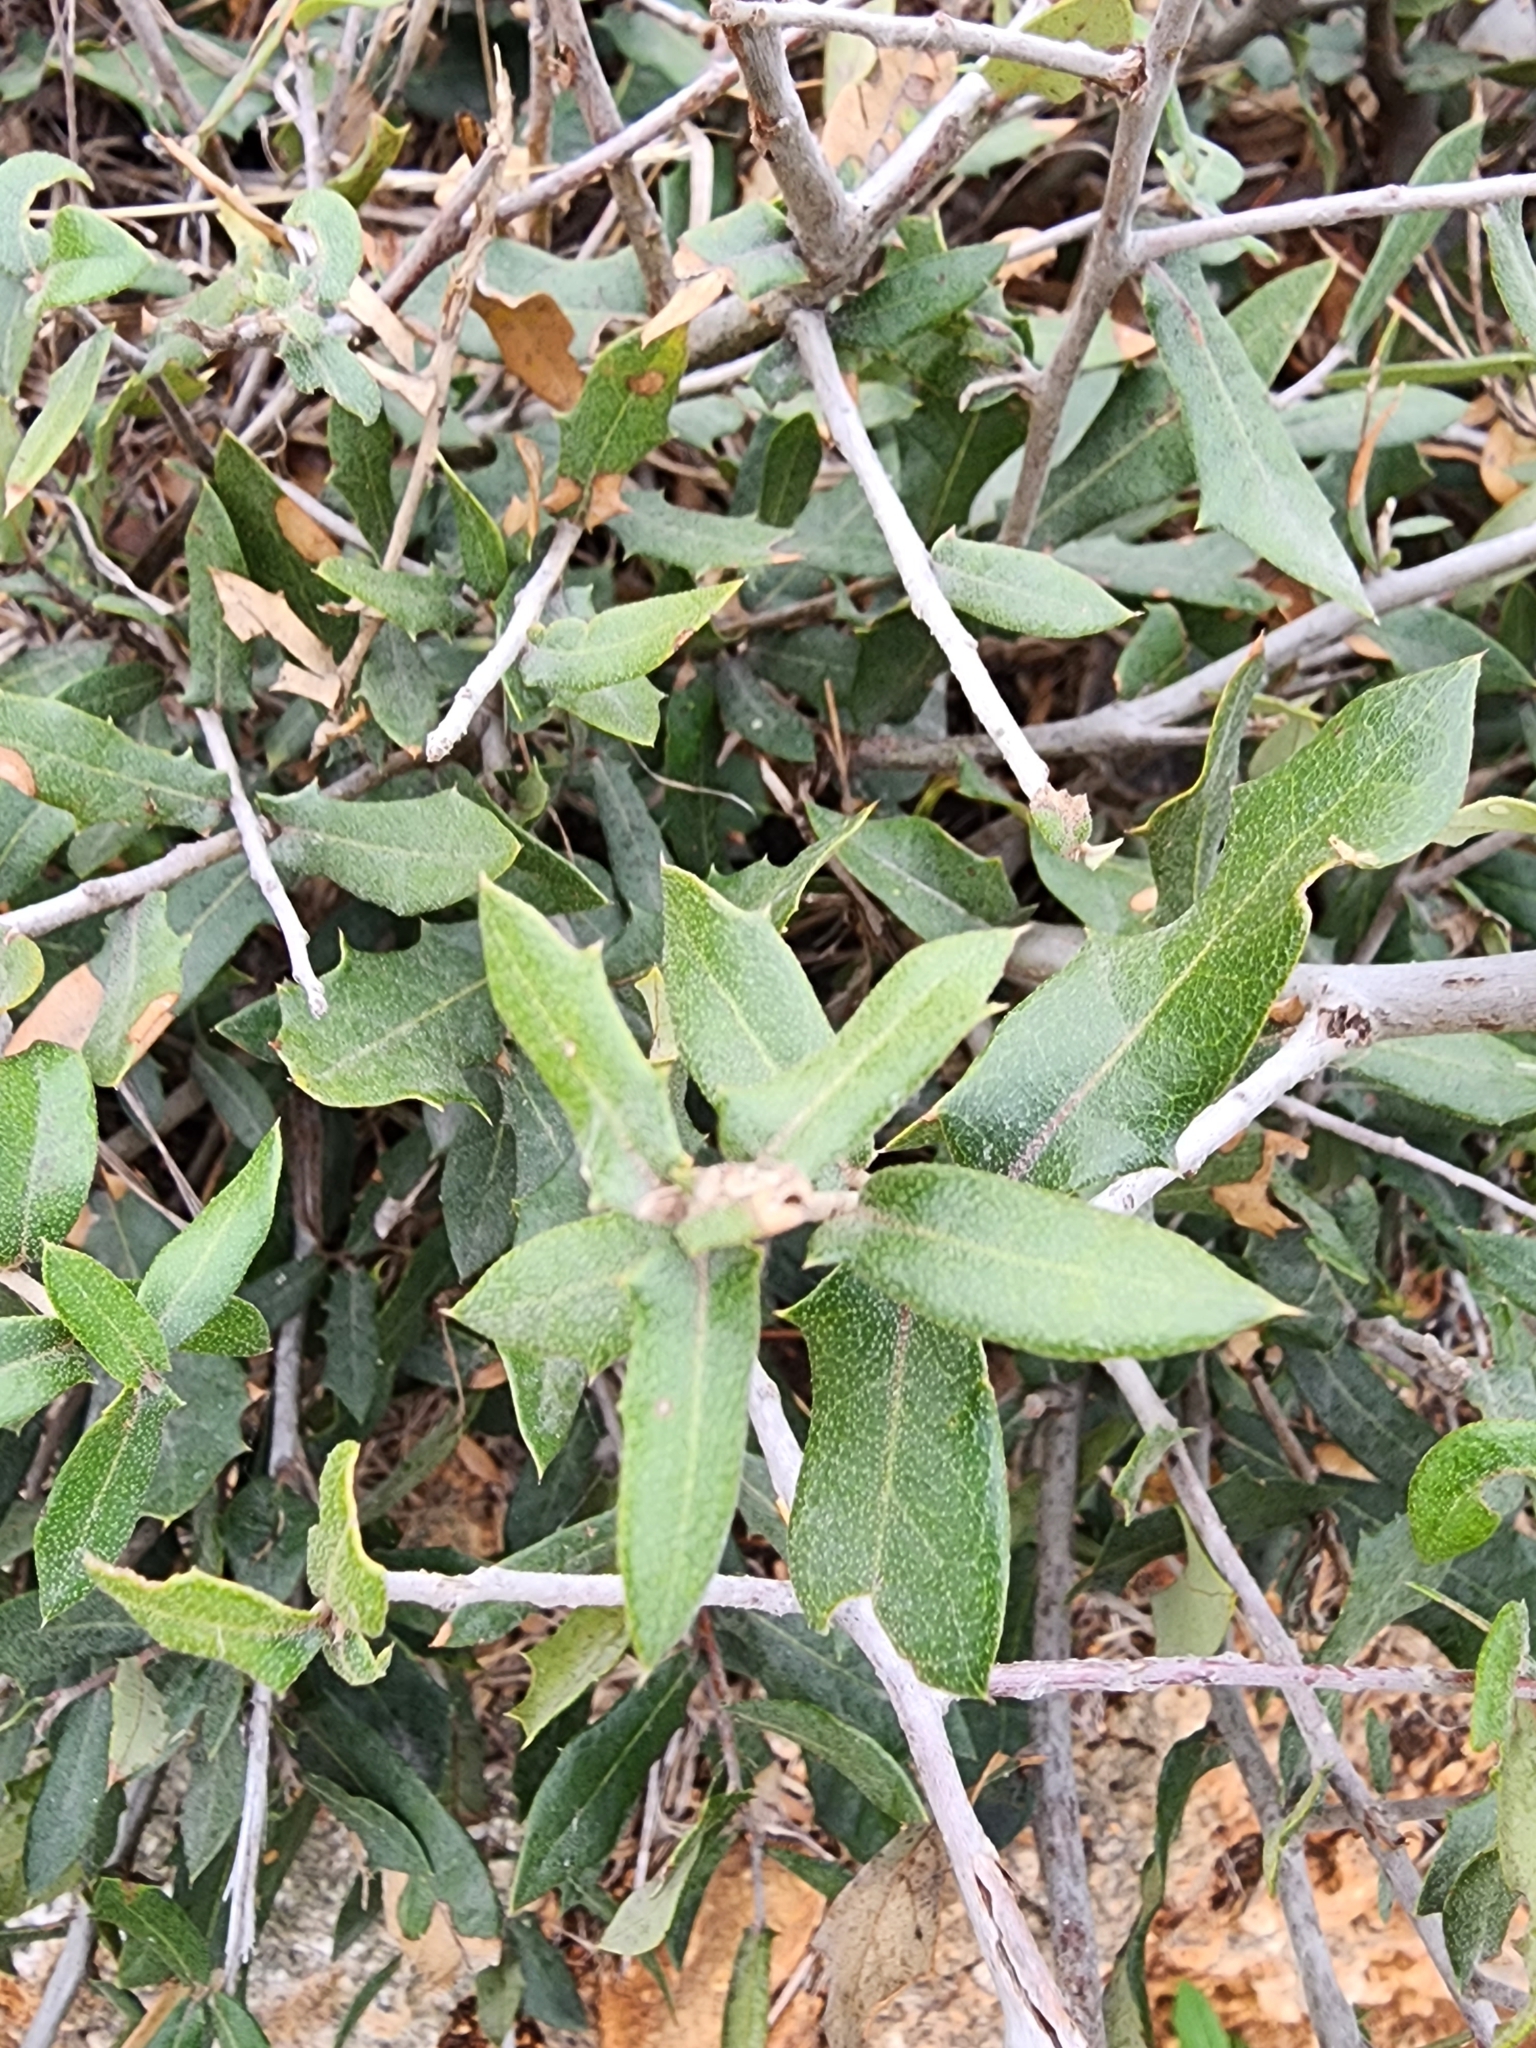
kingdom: Plantae
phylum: Tracheophyta
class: Magnoliopsida
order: Fagales
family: Fagaceae
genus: Quercus
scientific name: Quercus fusiformis
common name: Texas live oak
